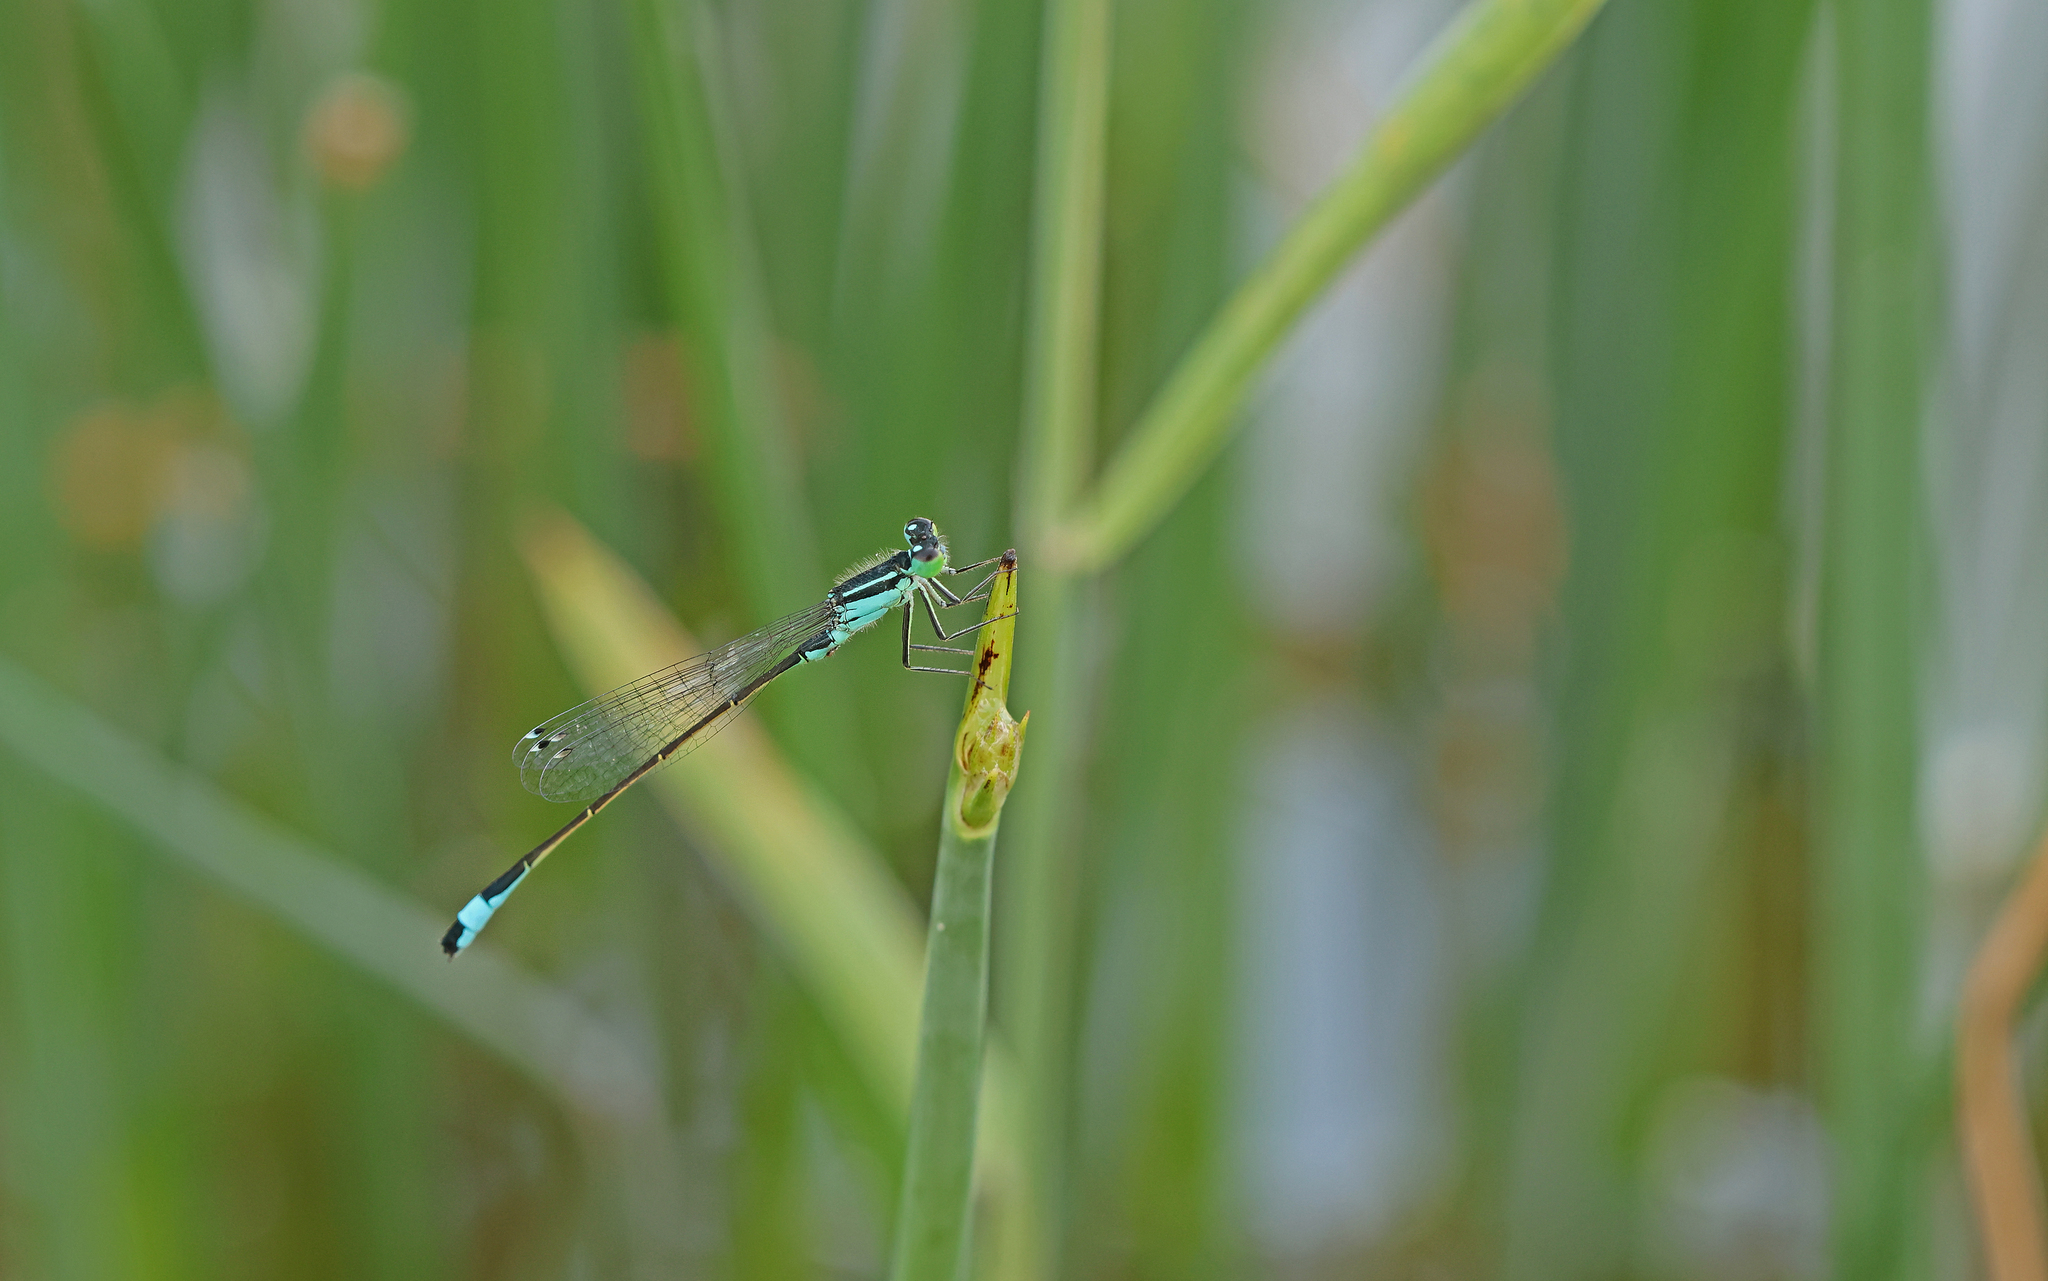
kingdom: Animalia
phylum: Arthropoda
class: Insecta
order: Odonata
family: Coenagrionidae
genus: Ischnura
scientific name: Ischnura elegans
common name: Blue-tailed damselfly
